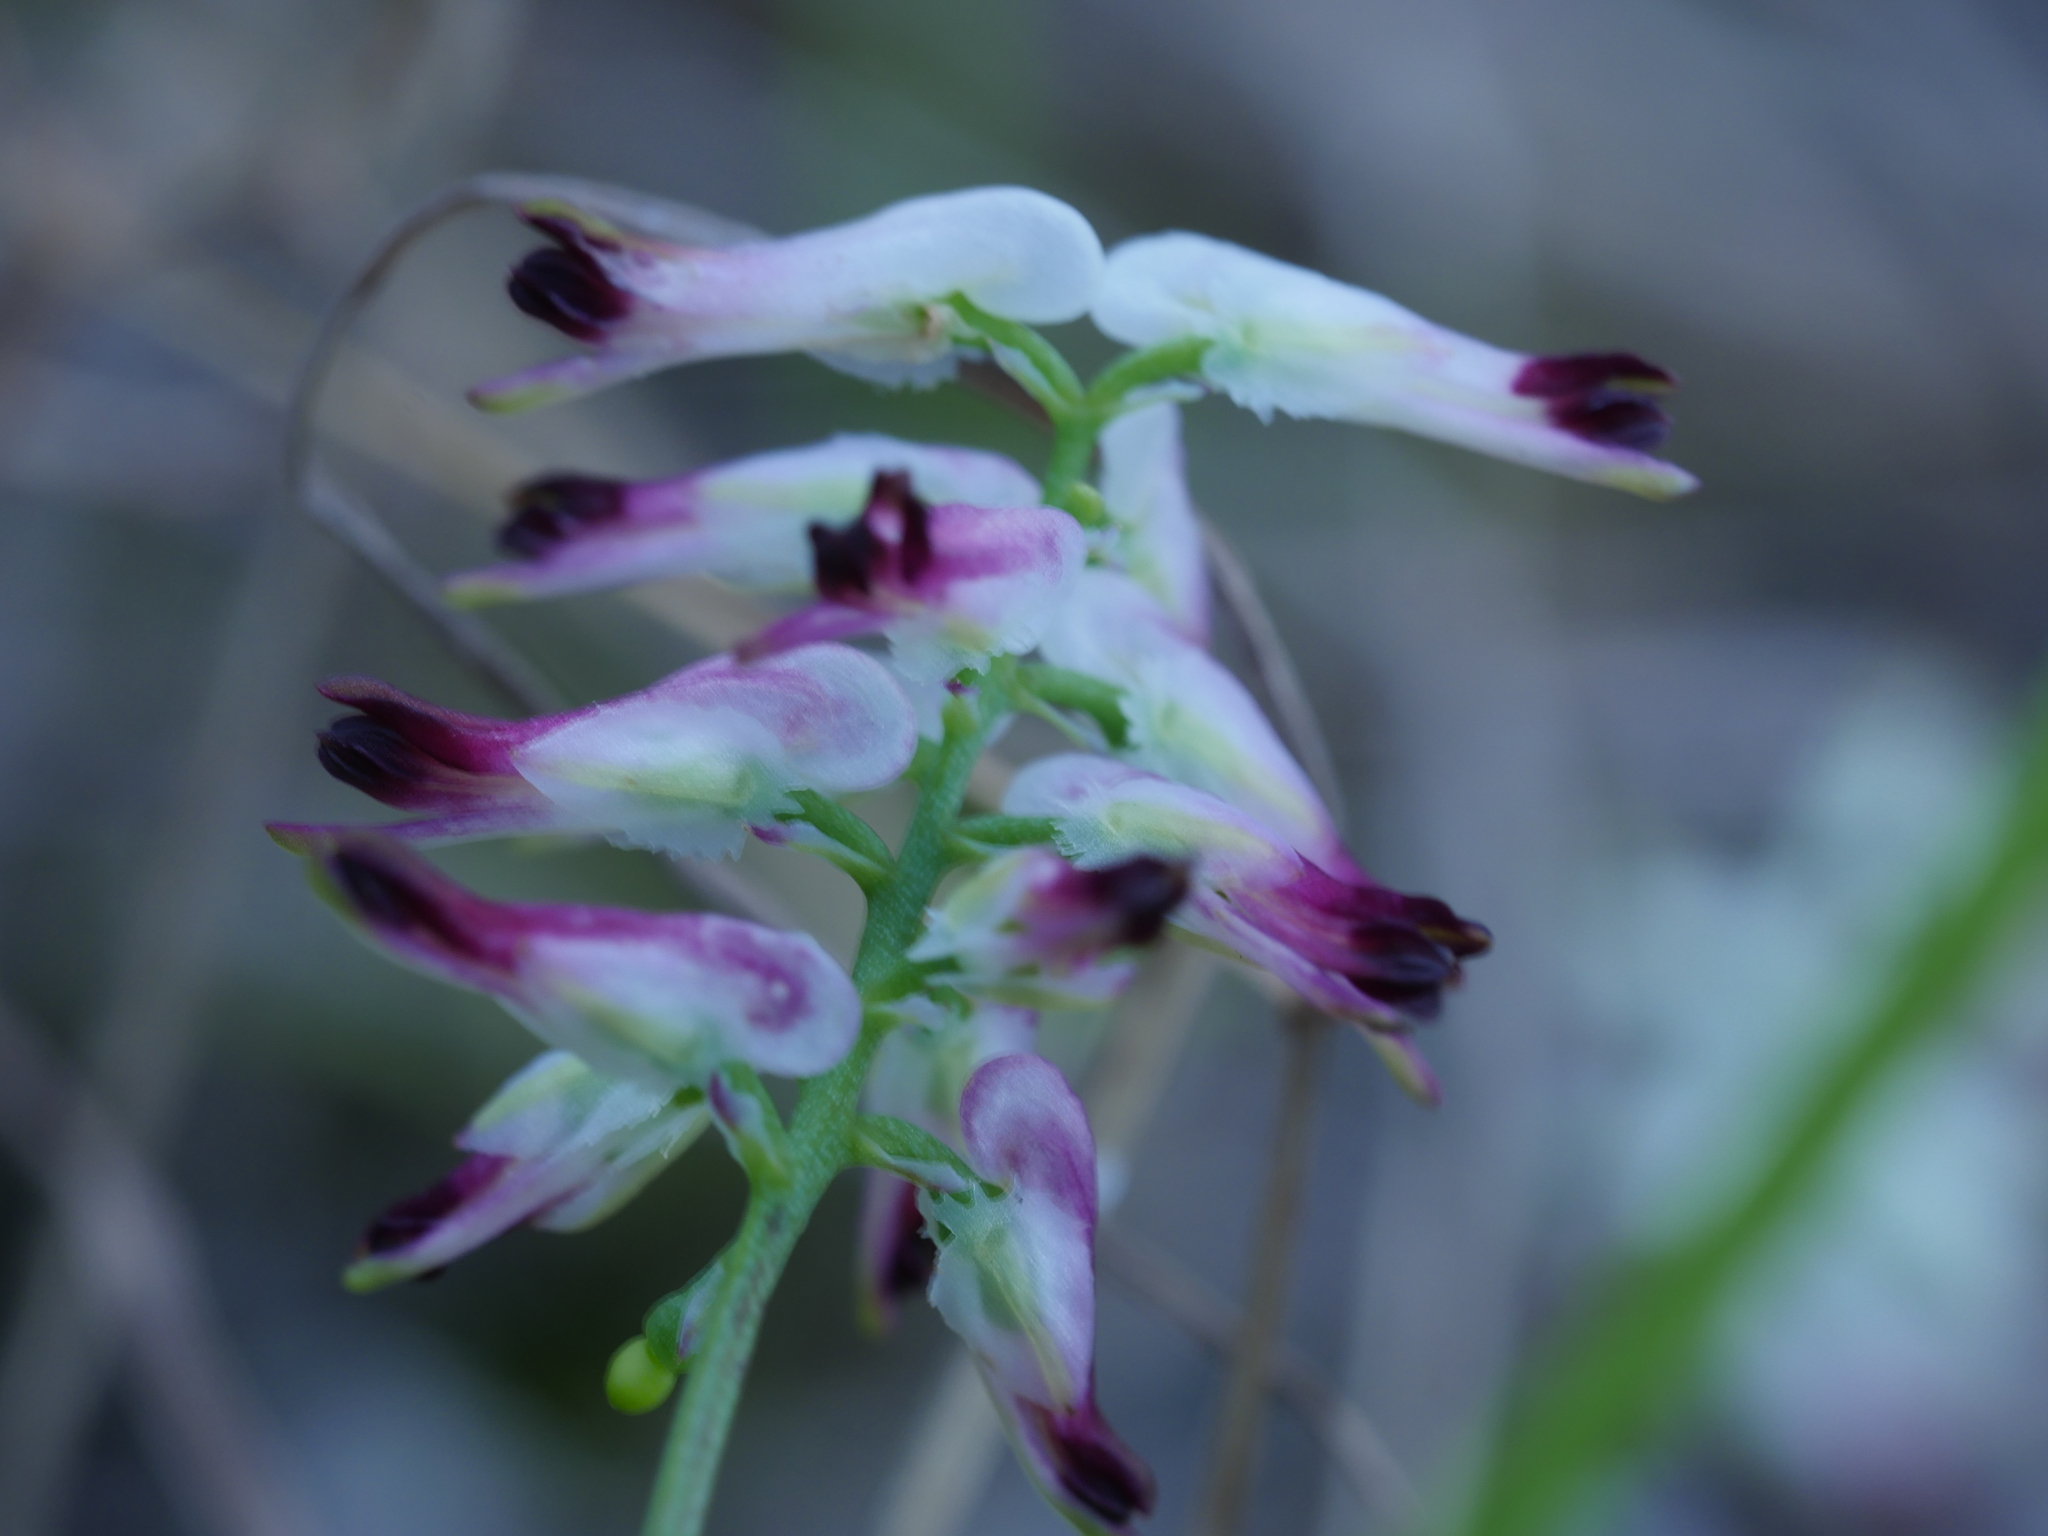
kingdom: Plantae
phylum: Tracheophyta
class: Magnoliopsida
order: Ranunculales
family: Papaveraceae
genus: Fumaria
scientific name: Fumaria capreolata
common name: White ramping-fumitory
